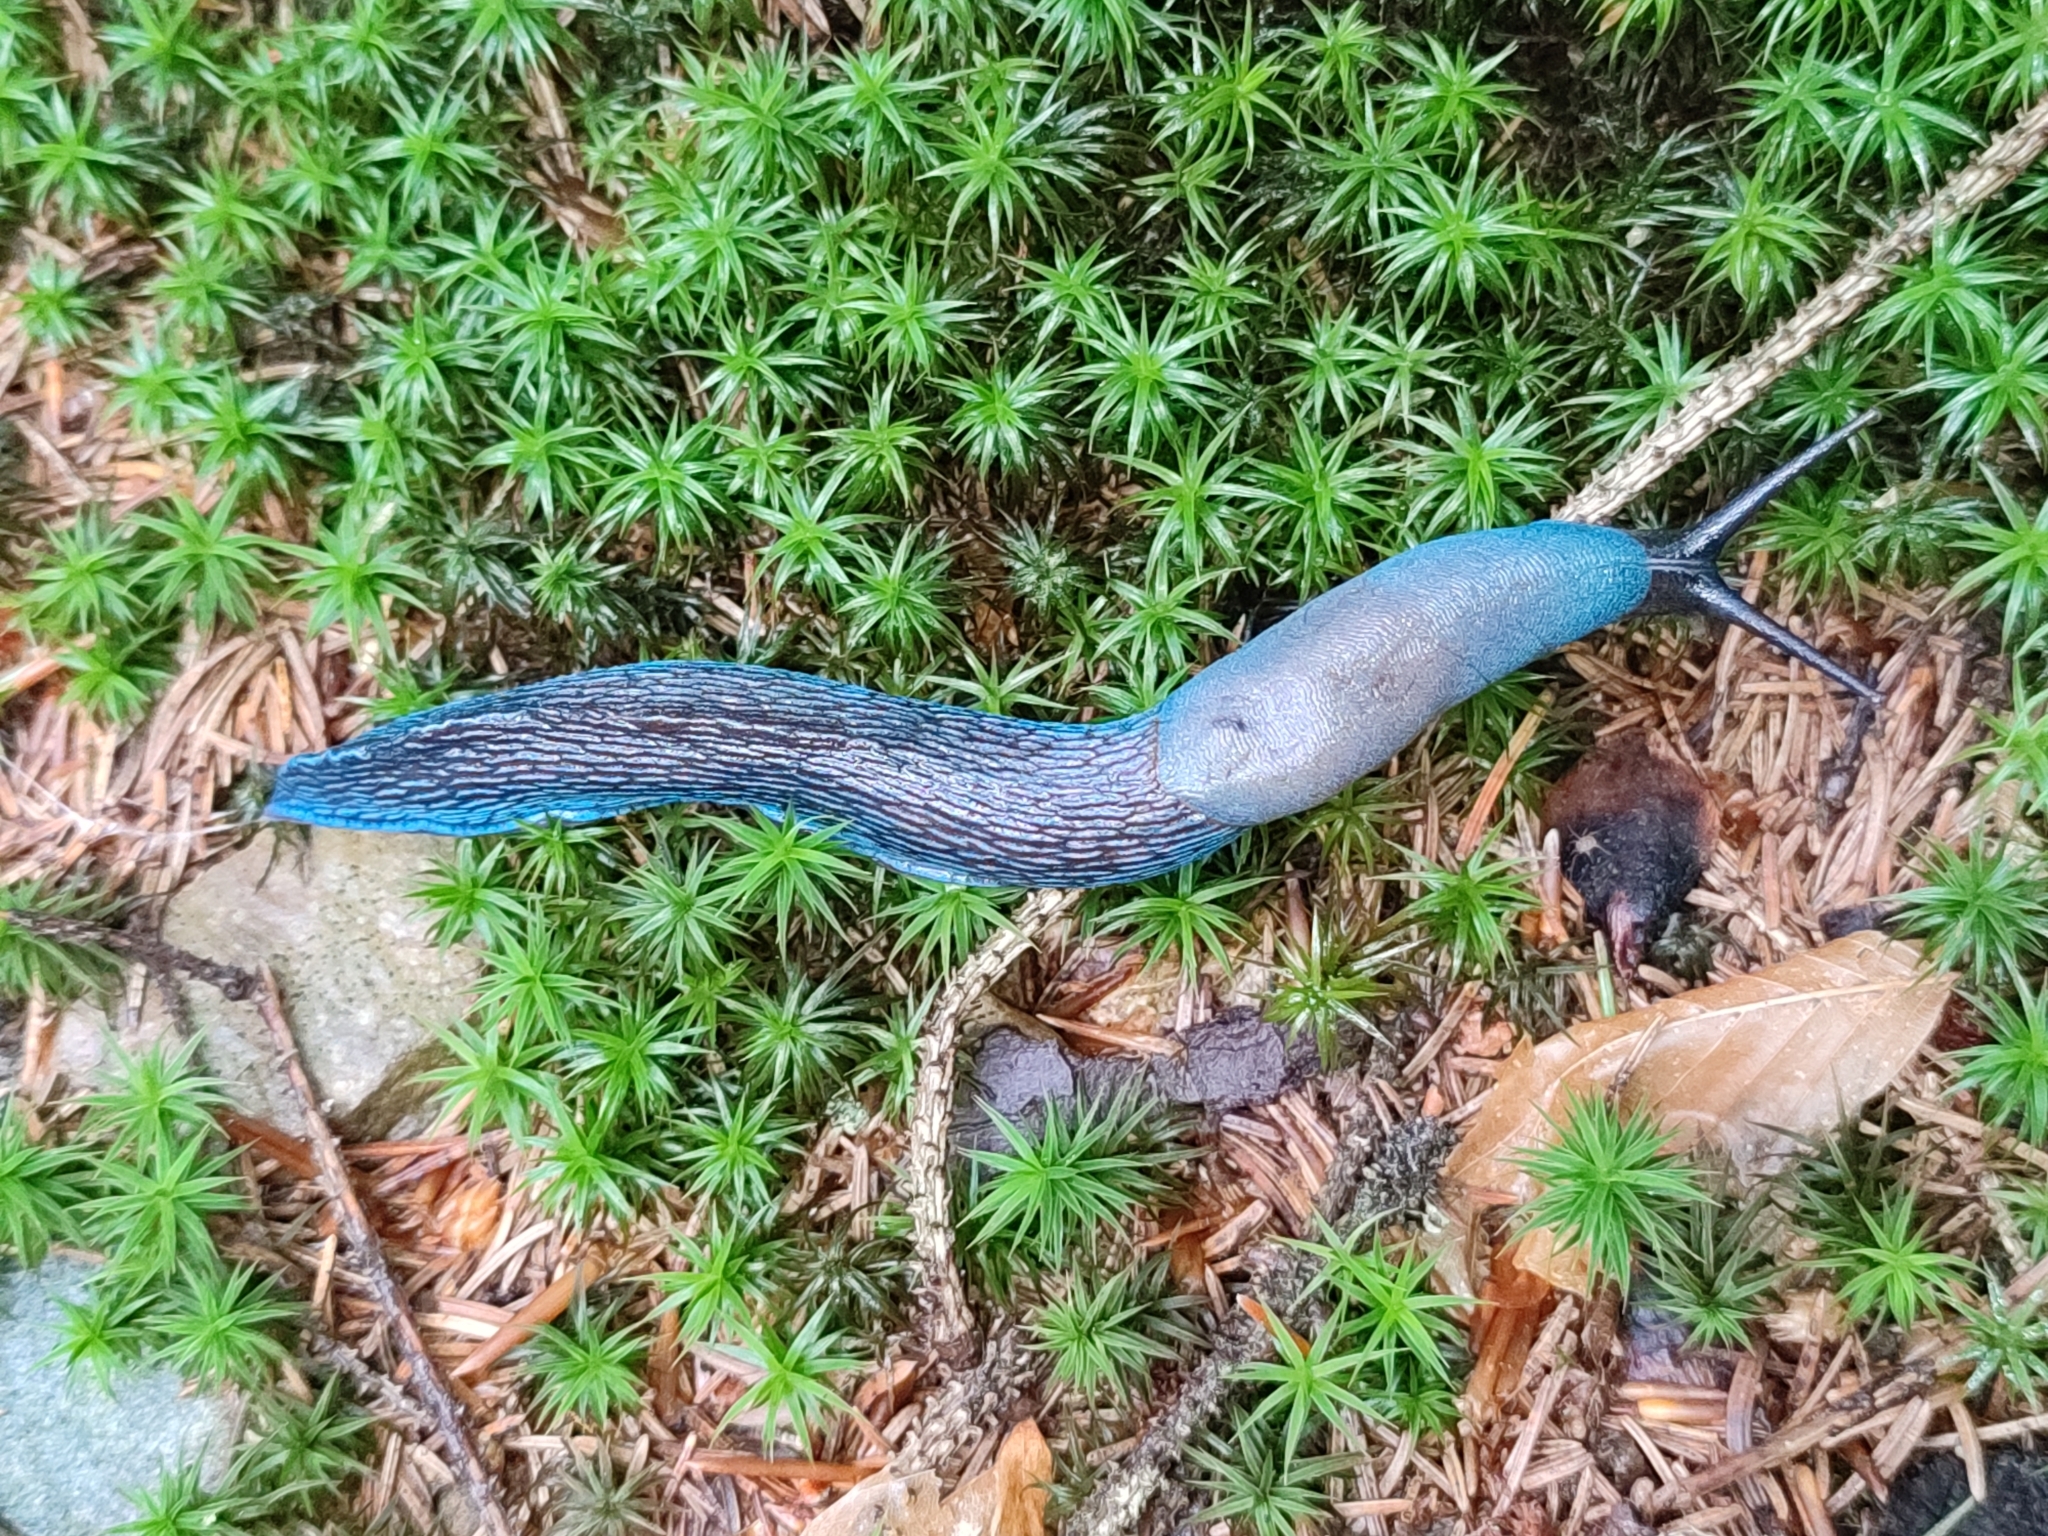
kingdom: Animalia
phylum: Mollusca
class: Gastropoda
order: Stylommatophora
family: Limacidae
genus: Bielzia
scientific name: Bielzia coerulans
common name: Carpathian blue slug
